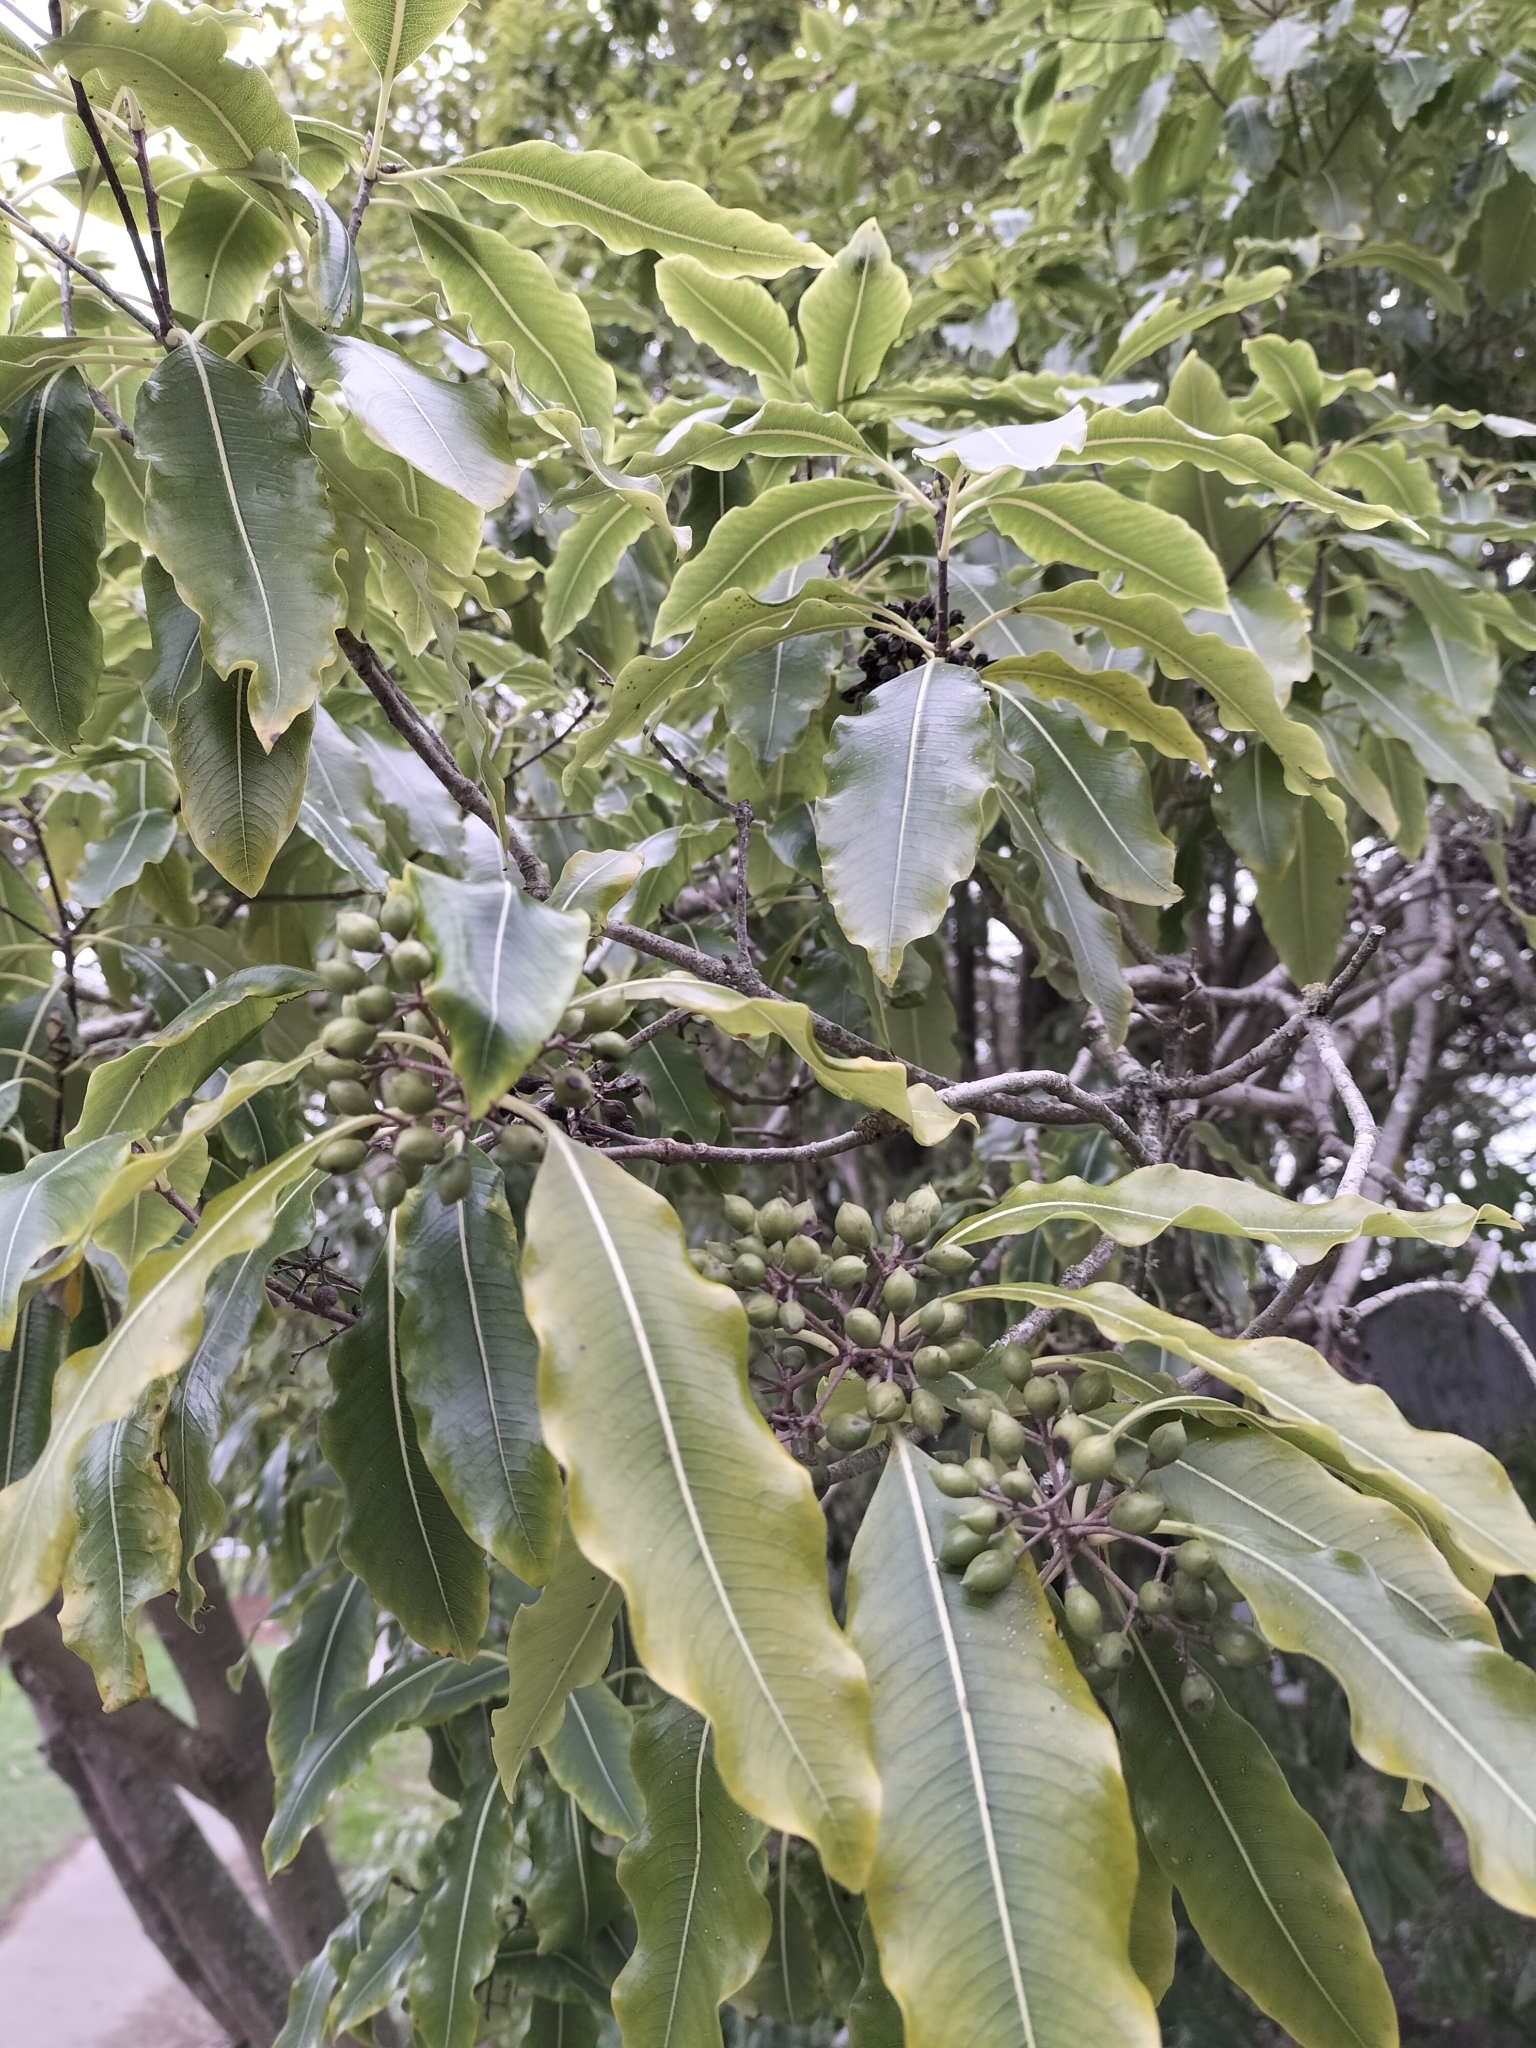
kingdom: Plantae
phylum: Tracheophyta
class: Magnoliopsida
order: Apiales
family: Pittosporaceae
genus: Pittosporum
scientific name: Pittosporum eugenioides
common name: Lemonwood
